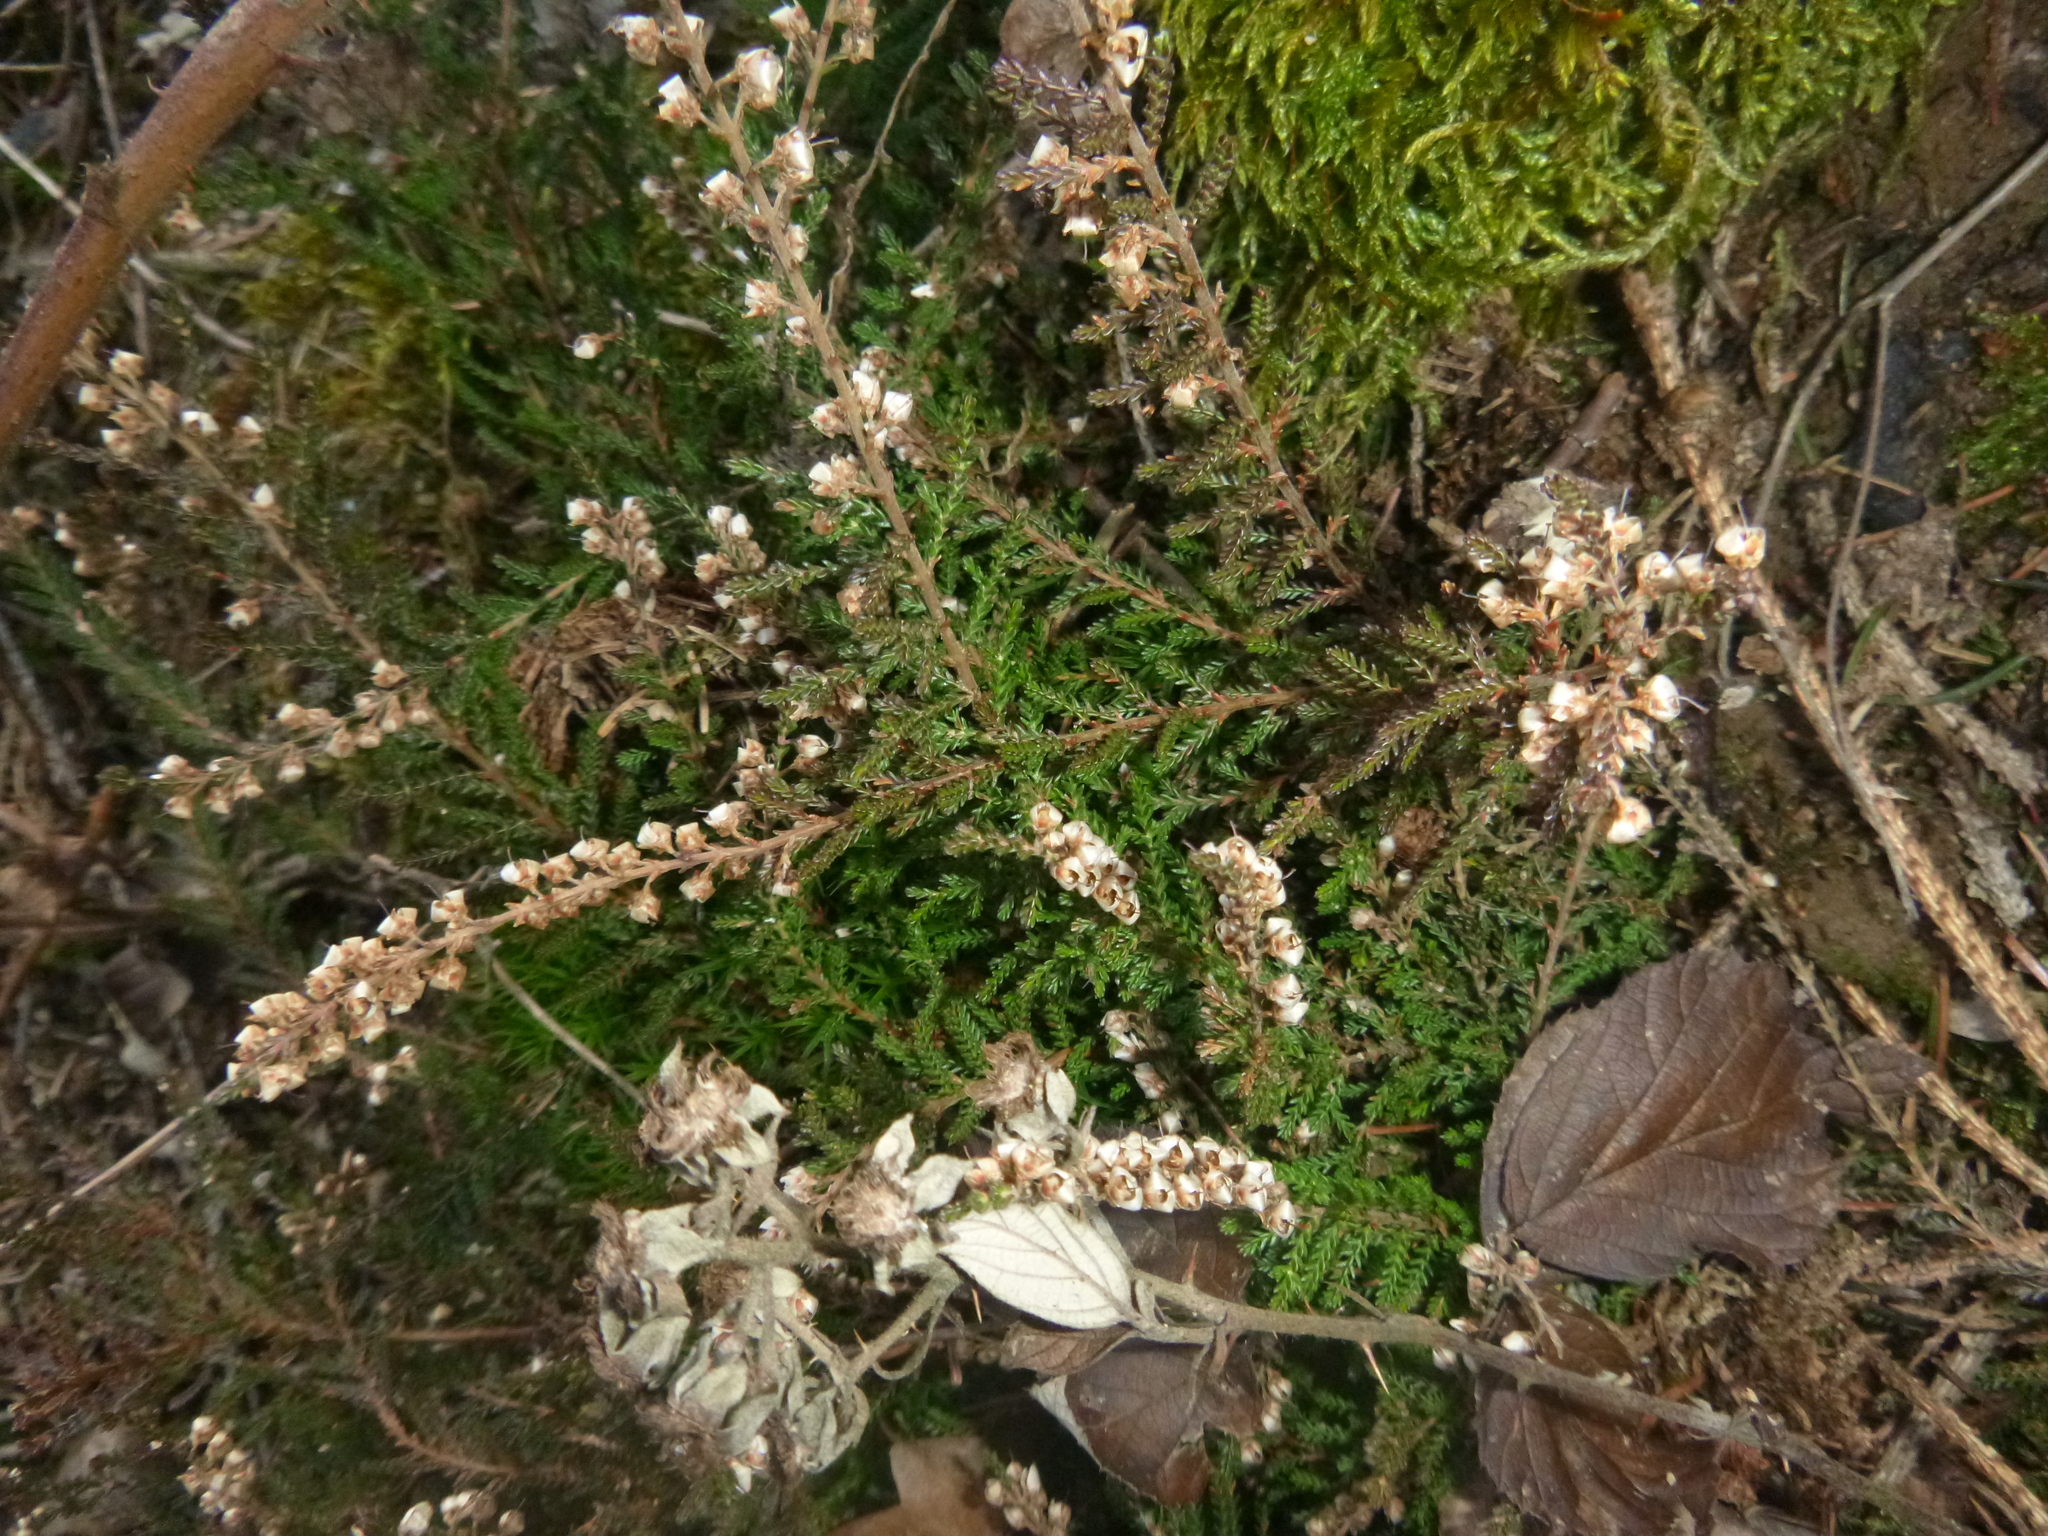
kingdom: Plantae
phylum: Tracheophyta
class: Magnoliopsida
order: Ericales
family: Ericaceae
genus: Calluna
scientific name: Calluna vulgaris
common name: Heather
